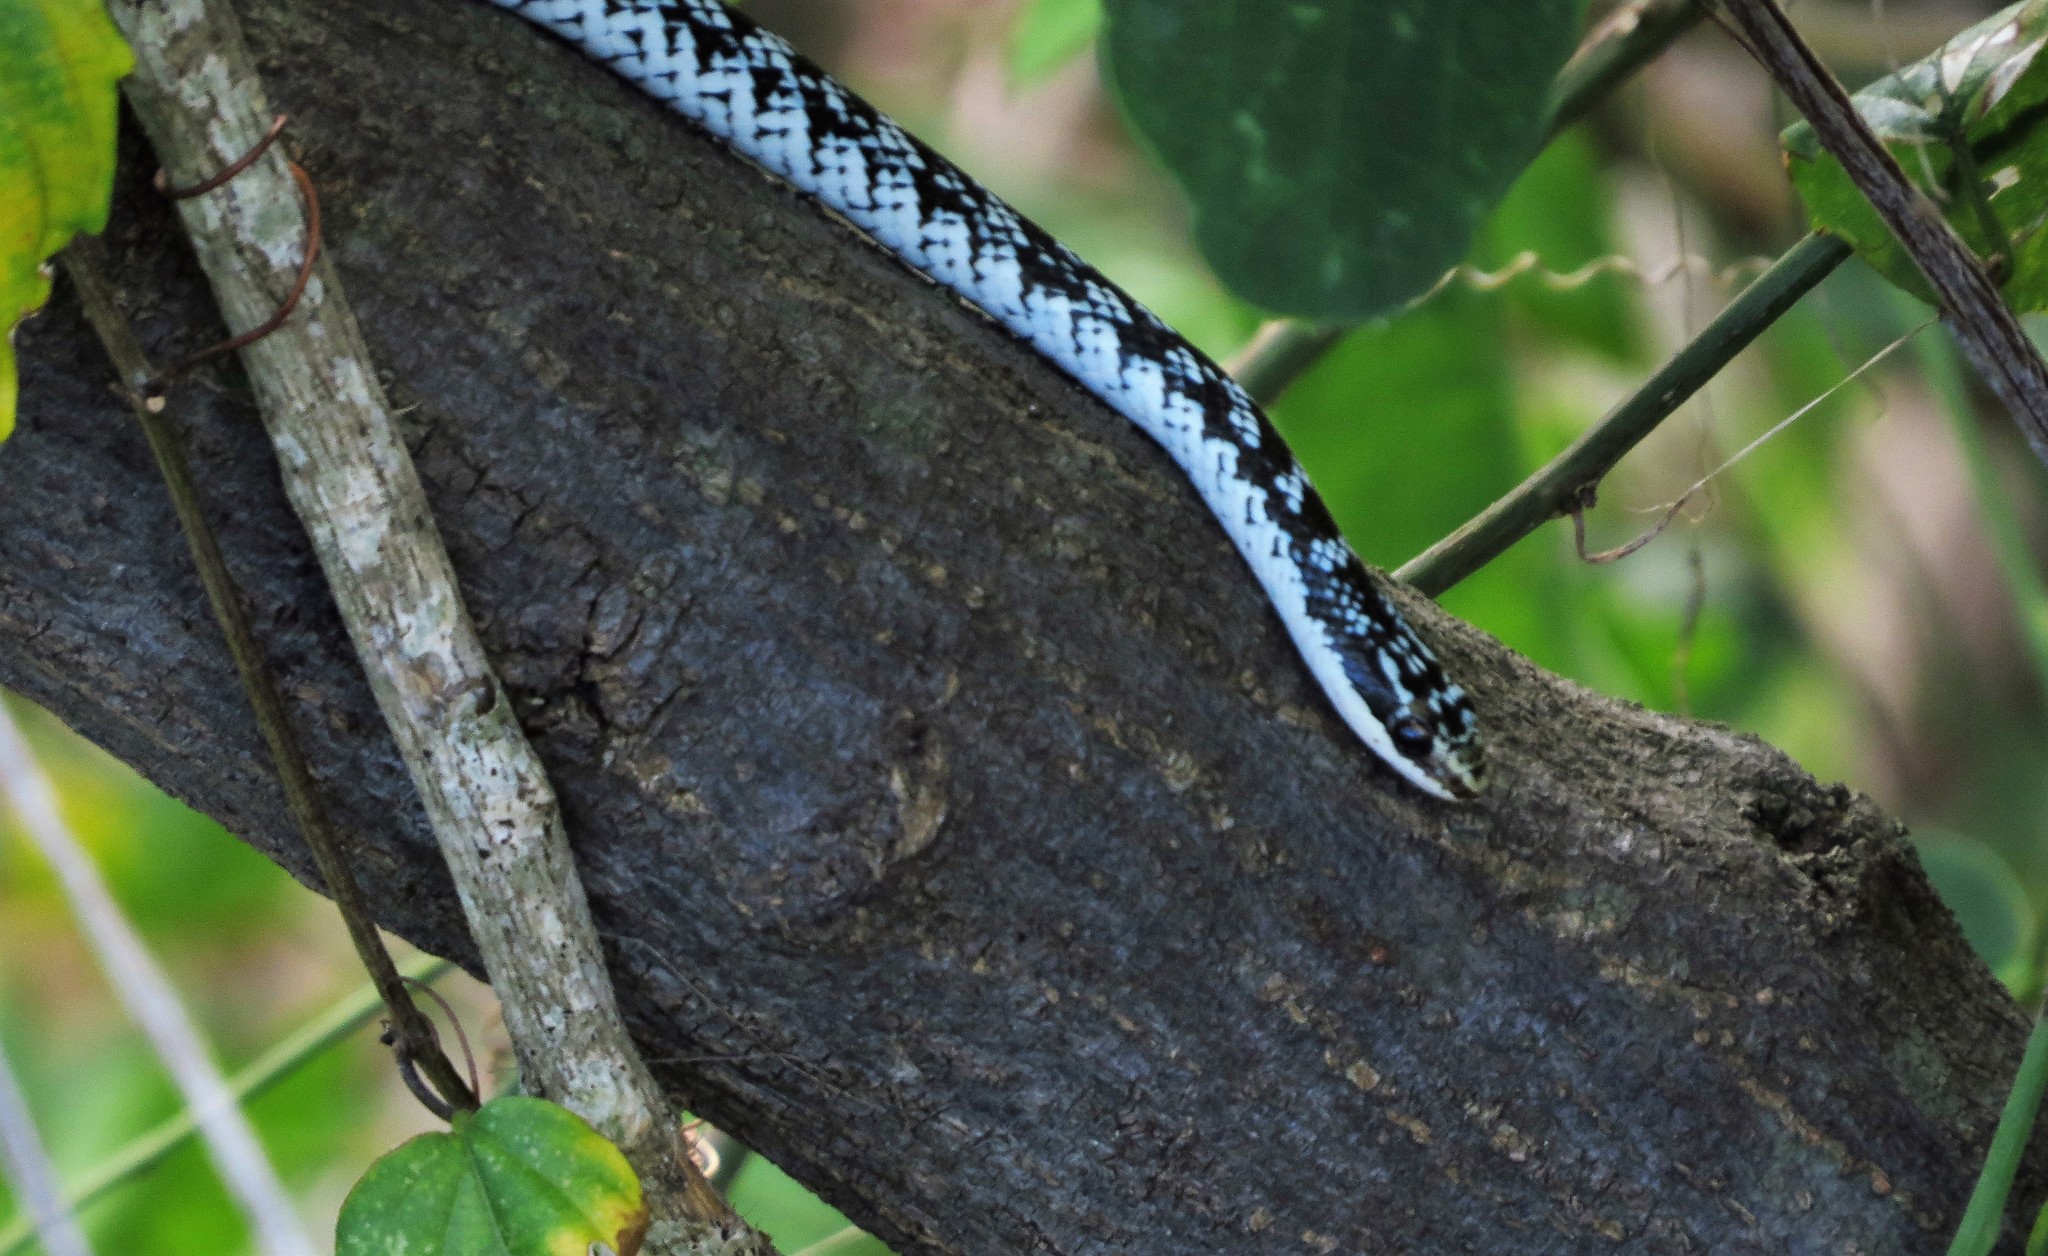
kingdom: Animalia
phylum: Chordata
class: Squamata
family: Colubridae
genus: Caraiba
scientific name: Caraiba andreae
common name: Cuban lesser racer
